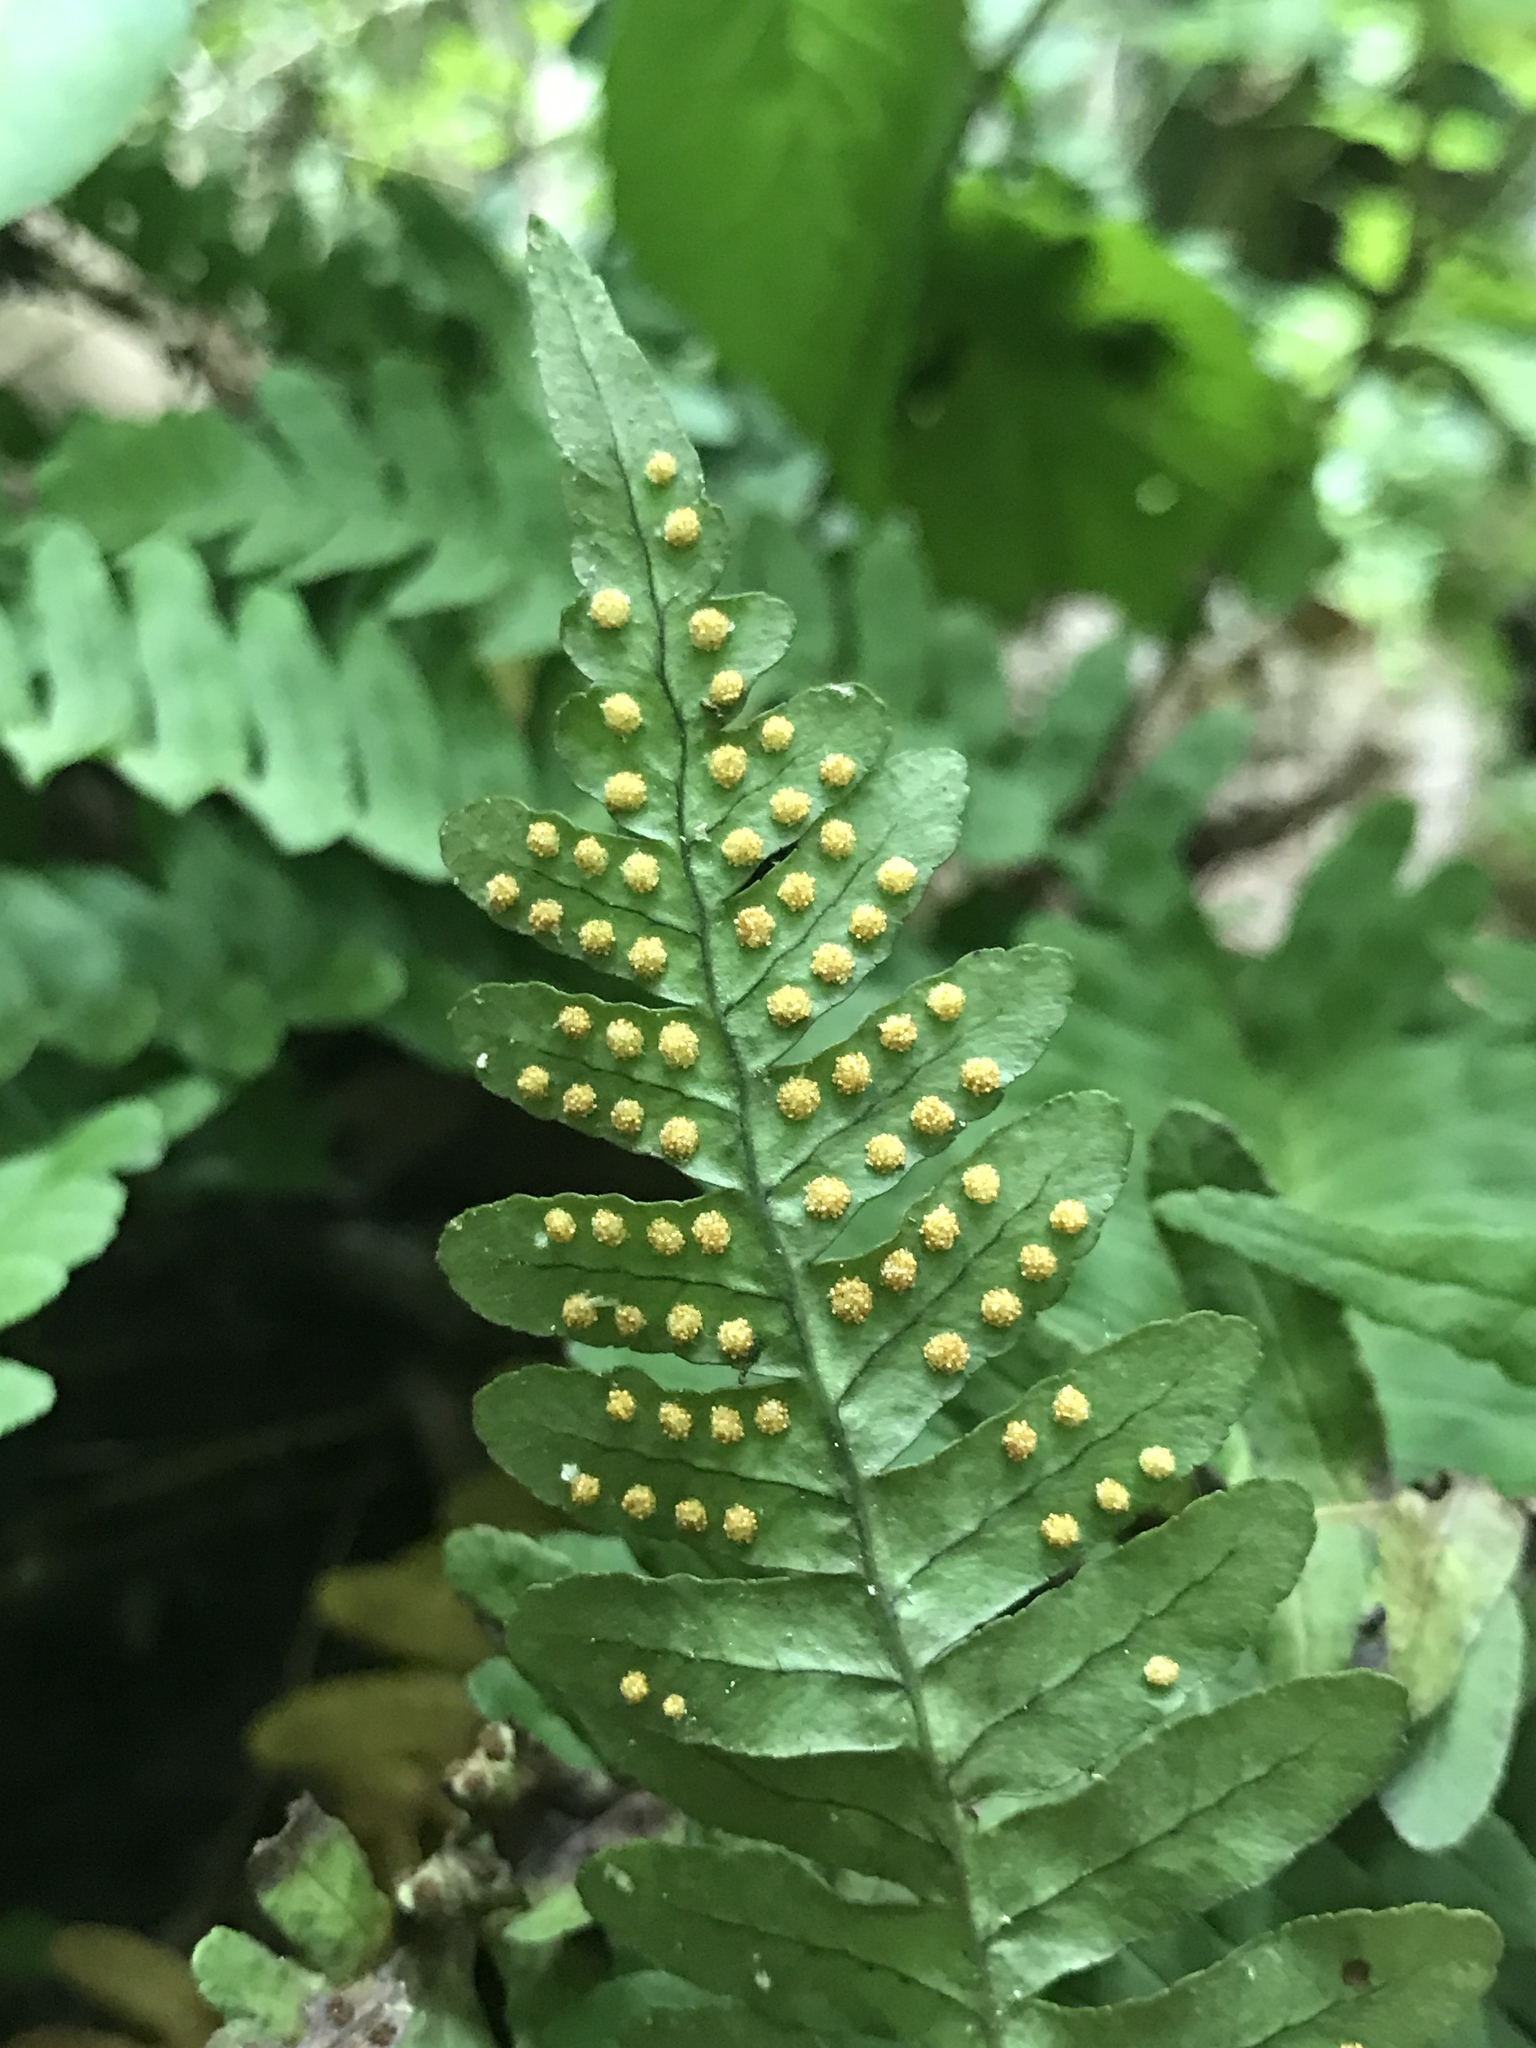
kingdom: Plantae
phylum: Tracheophyta
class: Polypodiopsida
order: Polypodiales
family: Polypodiaceae
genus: Polypodium
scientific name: Polypodium virginianum
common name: American wall fern
